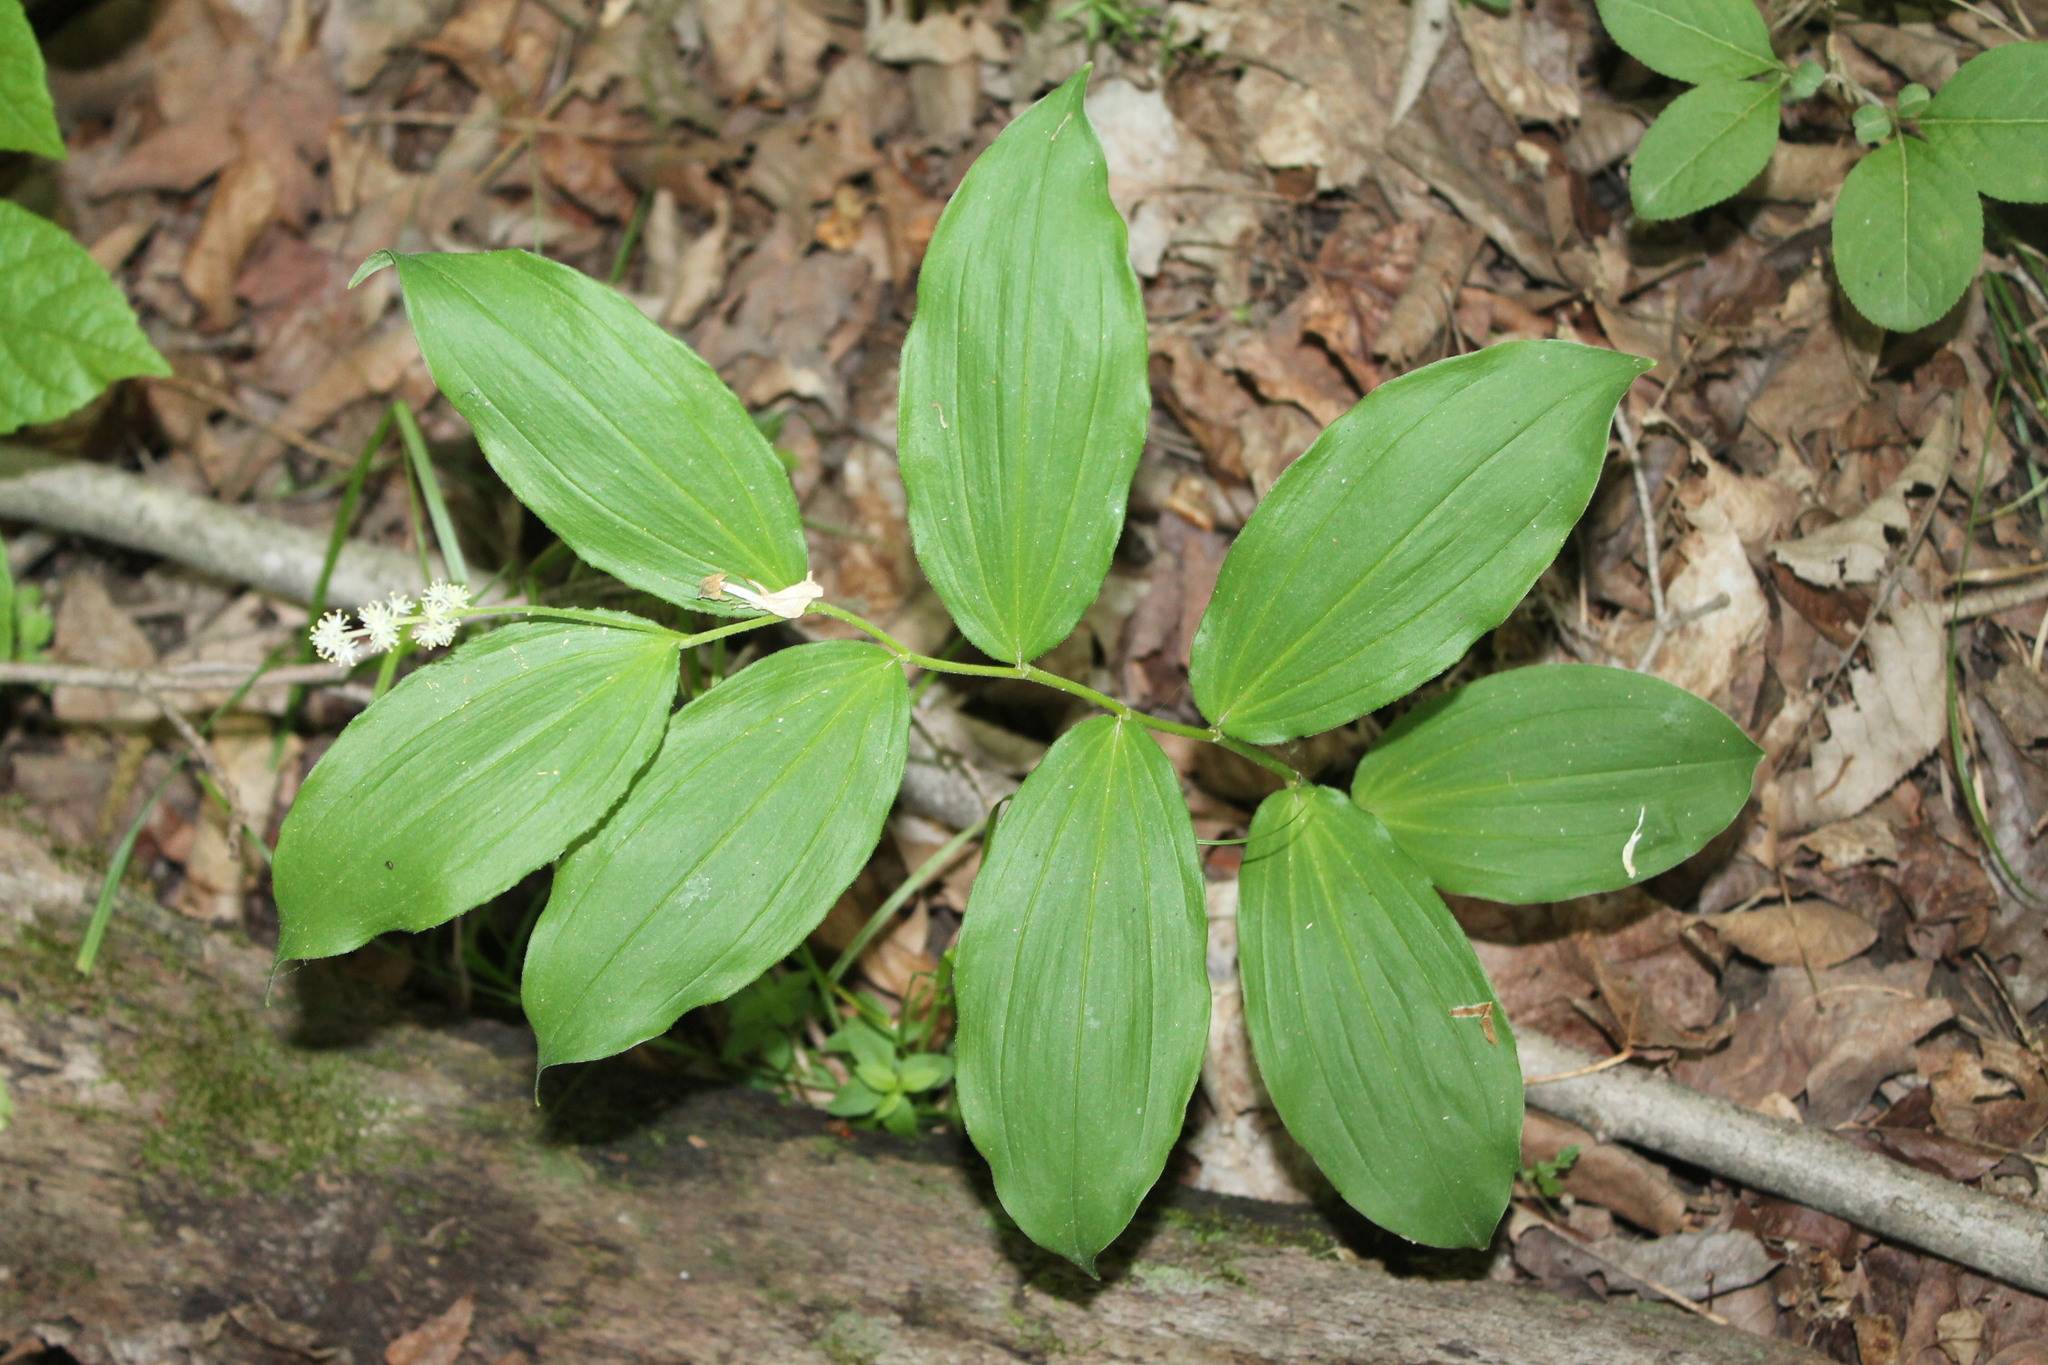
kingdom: Plantae
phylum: Tracheophyta
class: Liliopsida
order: Asparagales
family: Asparagaceae
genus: Maianthemum
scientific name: Maianthemum racemosum
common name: False spikenard
